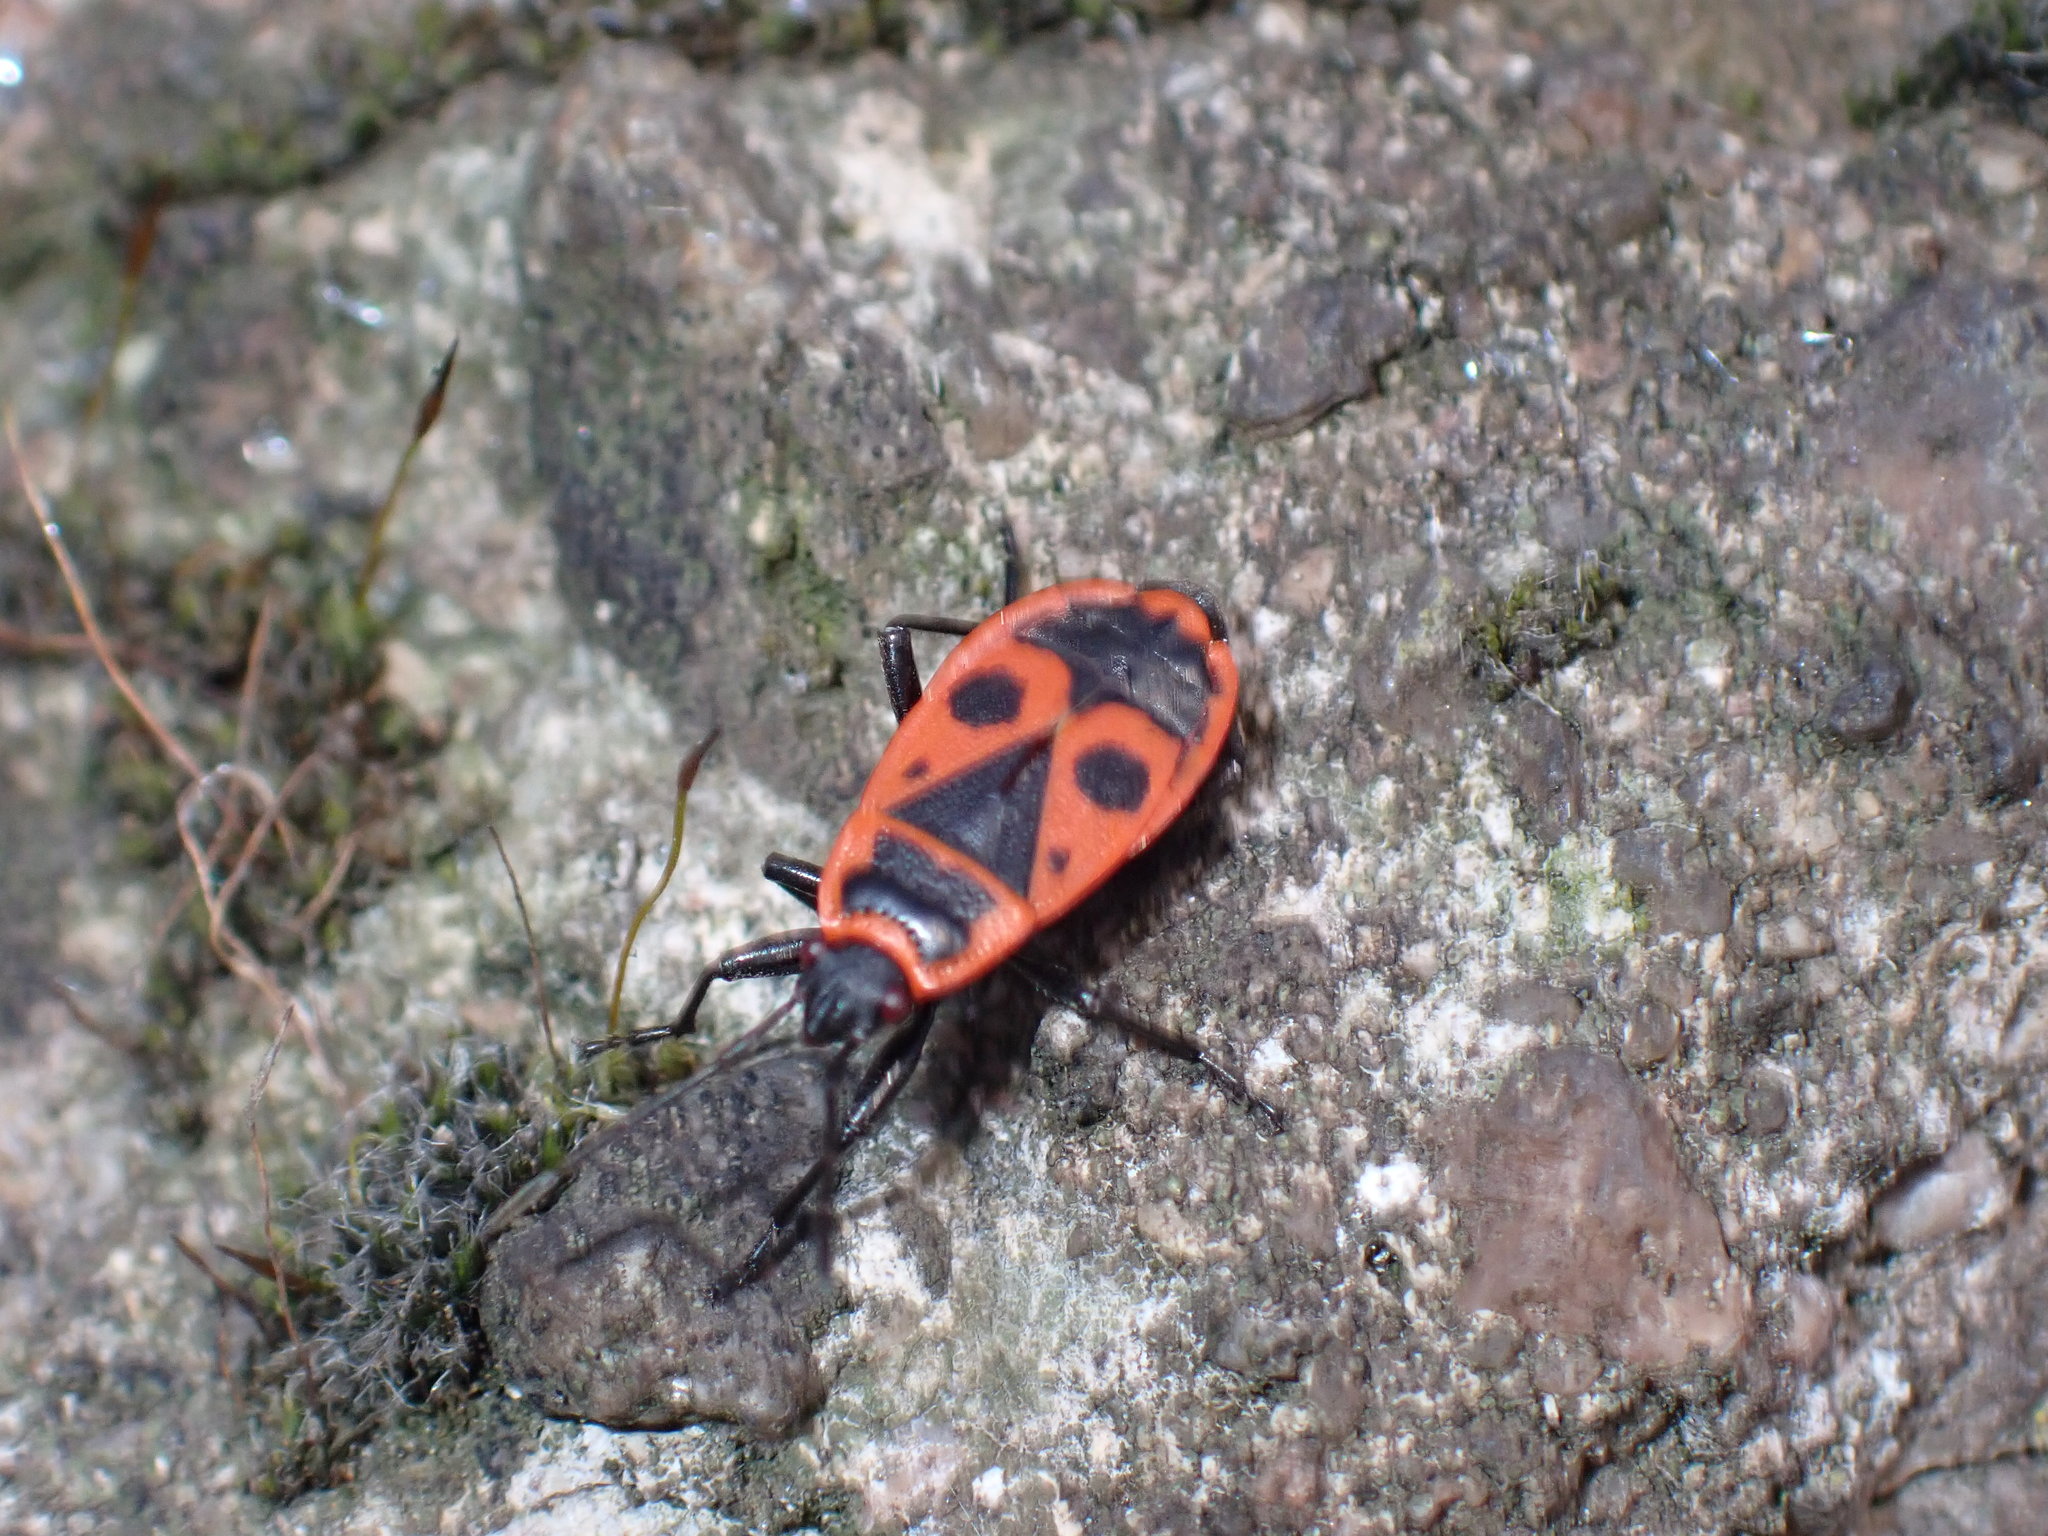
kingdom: Animalia
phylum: Arthropoda
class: Insecta
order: Hemiptera
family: Pyrrhocoridae
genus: Pyrrhocoris
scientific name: Pyrrhocoris apterus
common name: Firebug
